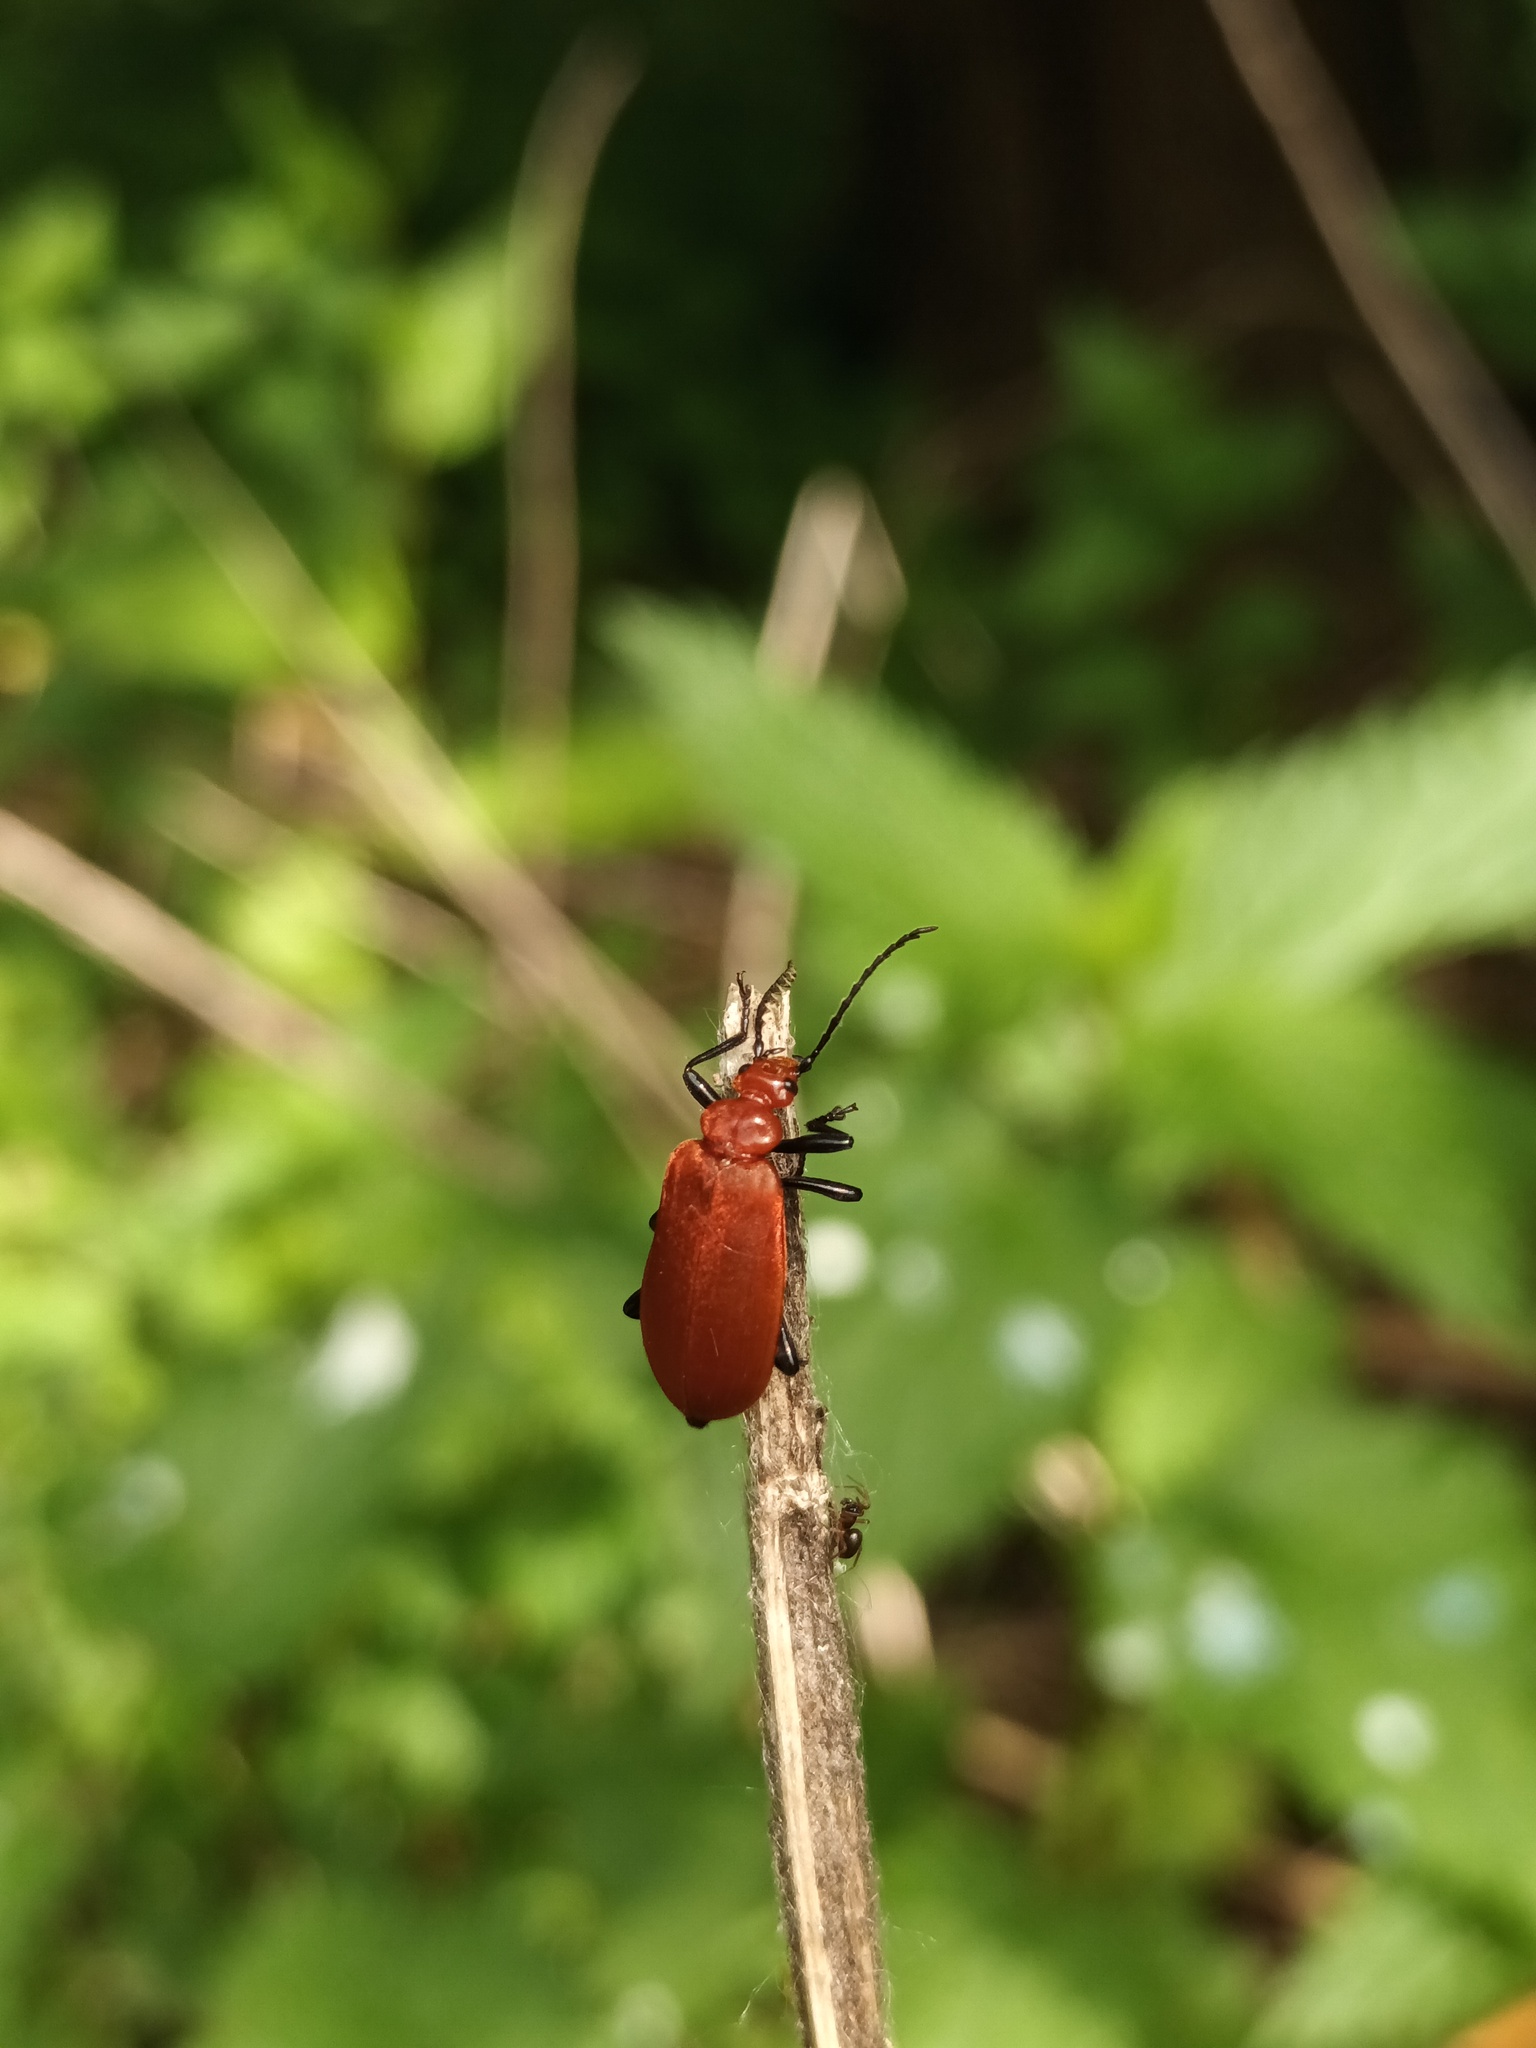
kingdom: Animalia
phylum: Arthropoda
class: Insecta
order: Coleoptera
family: Pyrochroidae
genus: Pyrochroa
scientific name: Pyrochroa serraticornis
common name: Red-headed cardinal beetle
